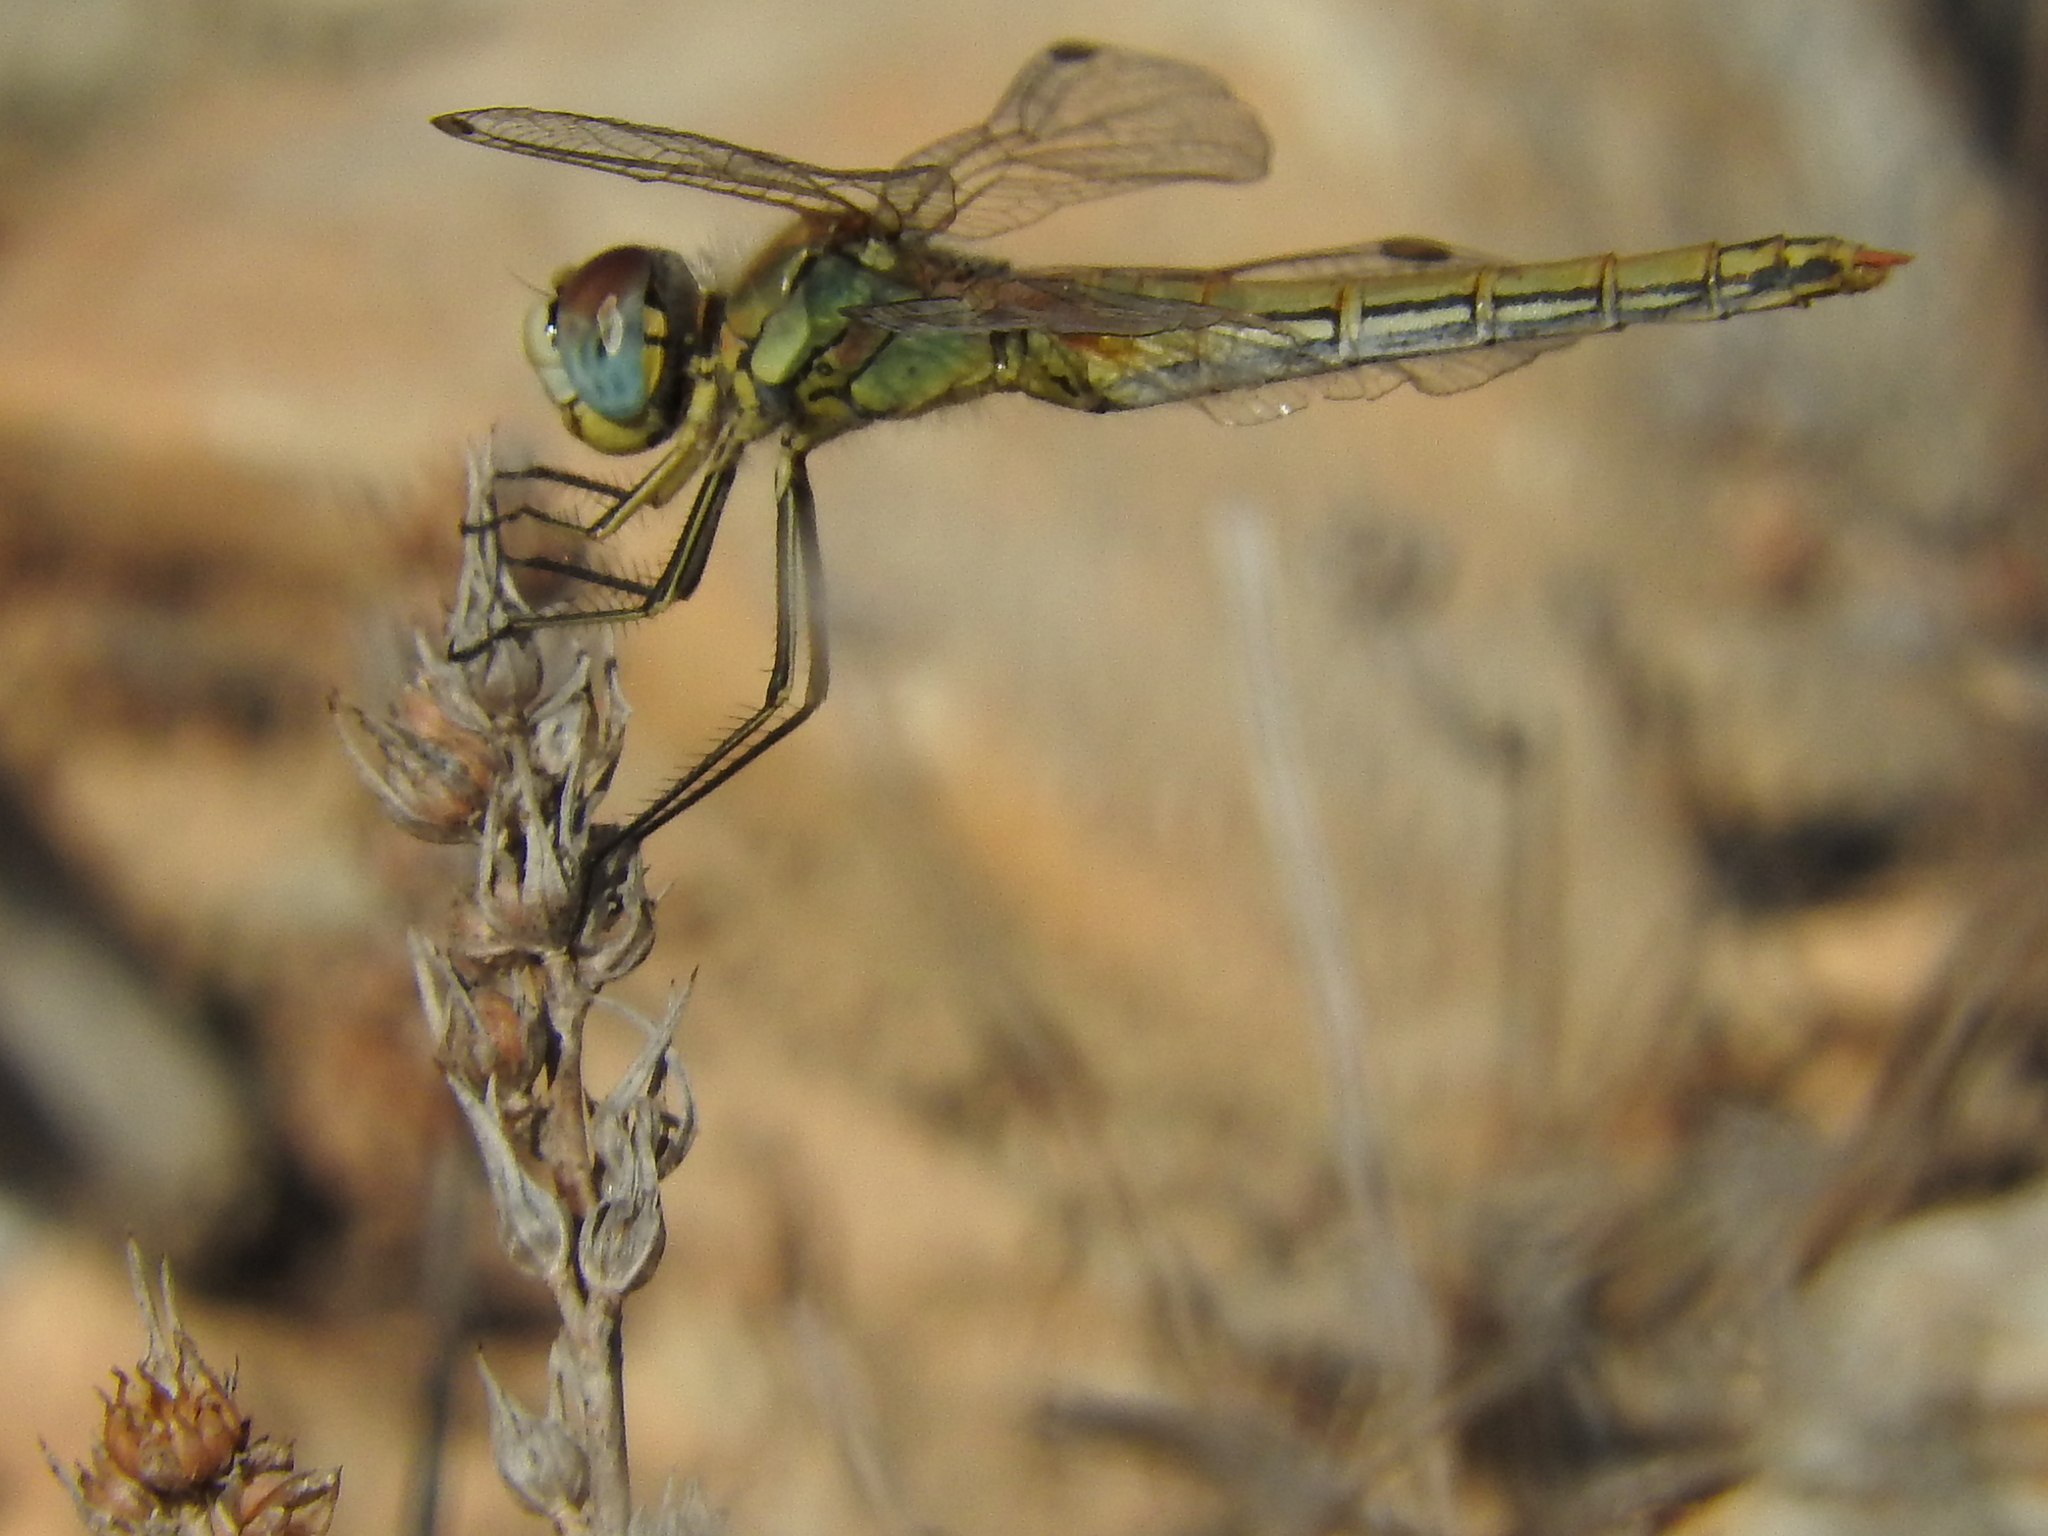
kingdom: Animalia
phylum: Arthropoda
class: Insecta
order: Odonata
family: Libellulidae
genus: Sympetrum
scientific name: Sympetrum fonscolombii
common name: Red-veined darter
